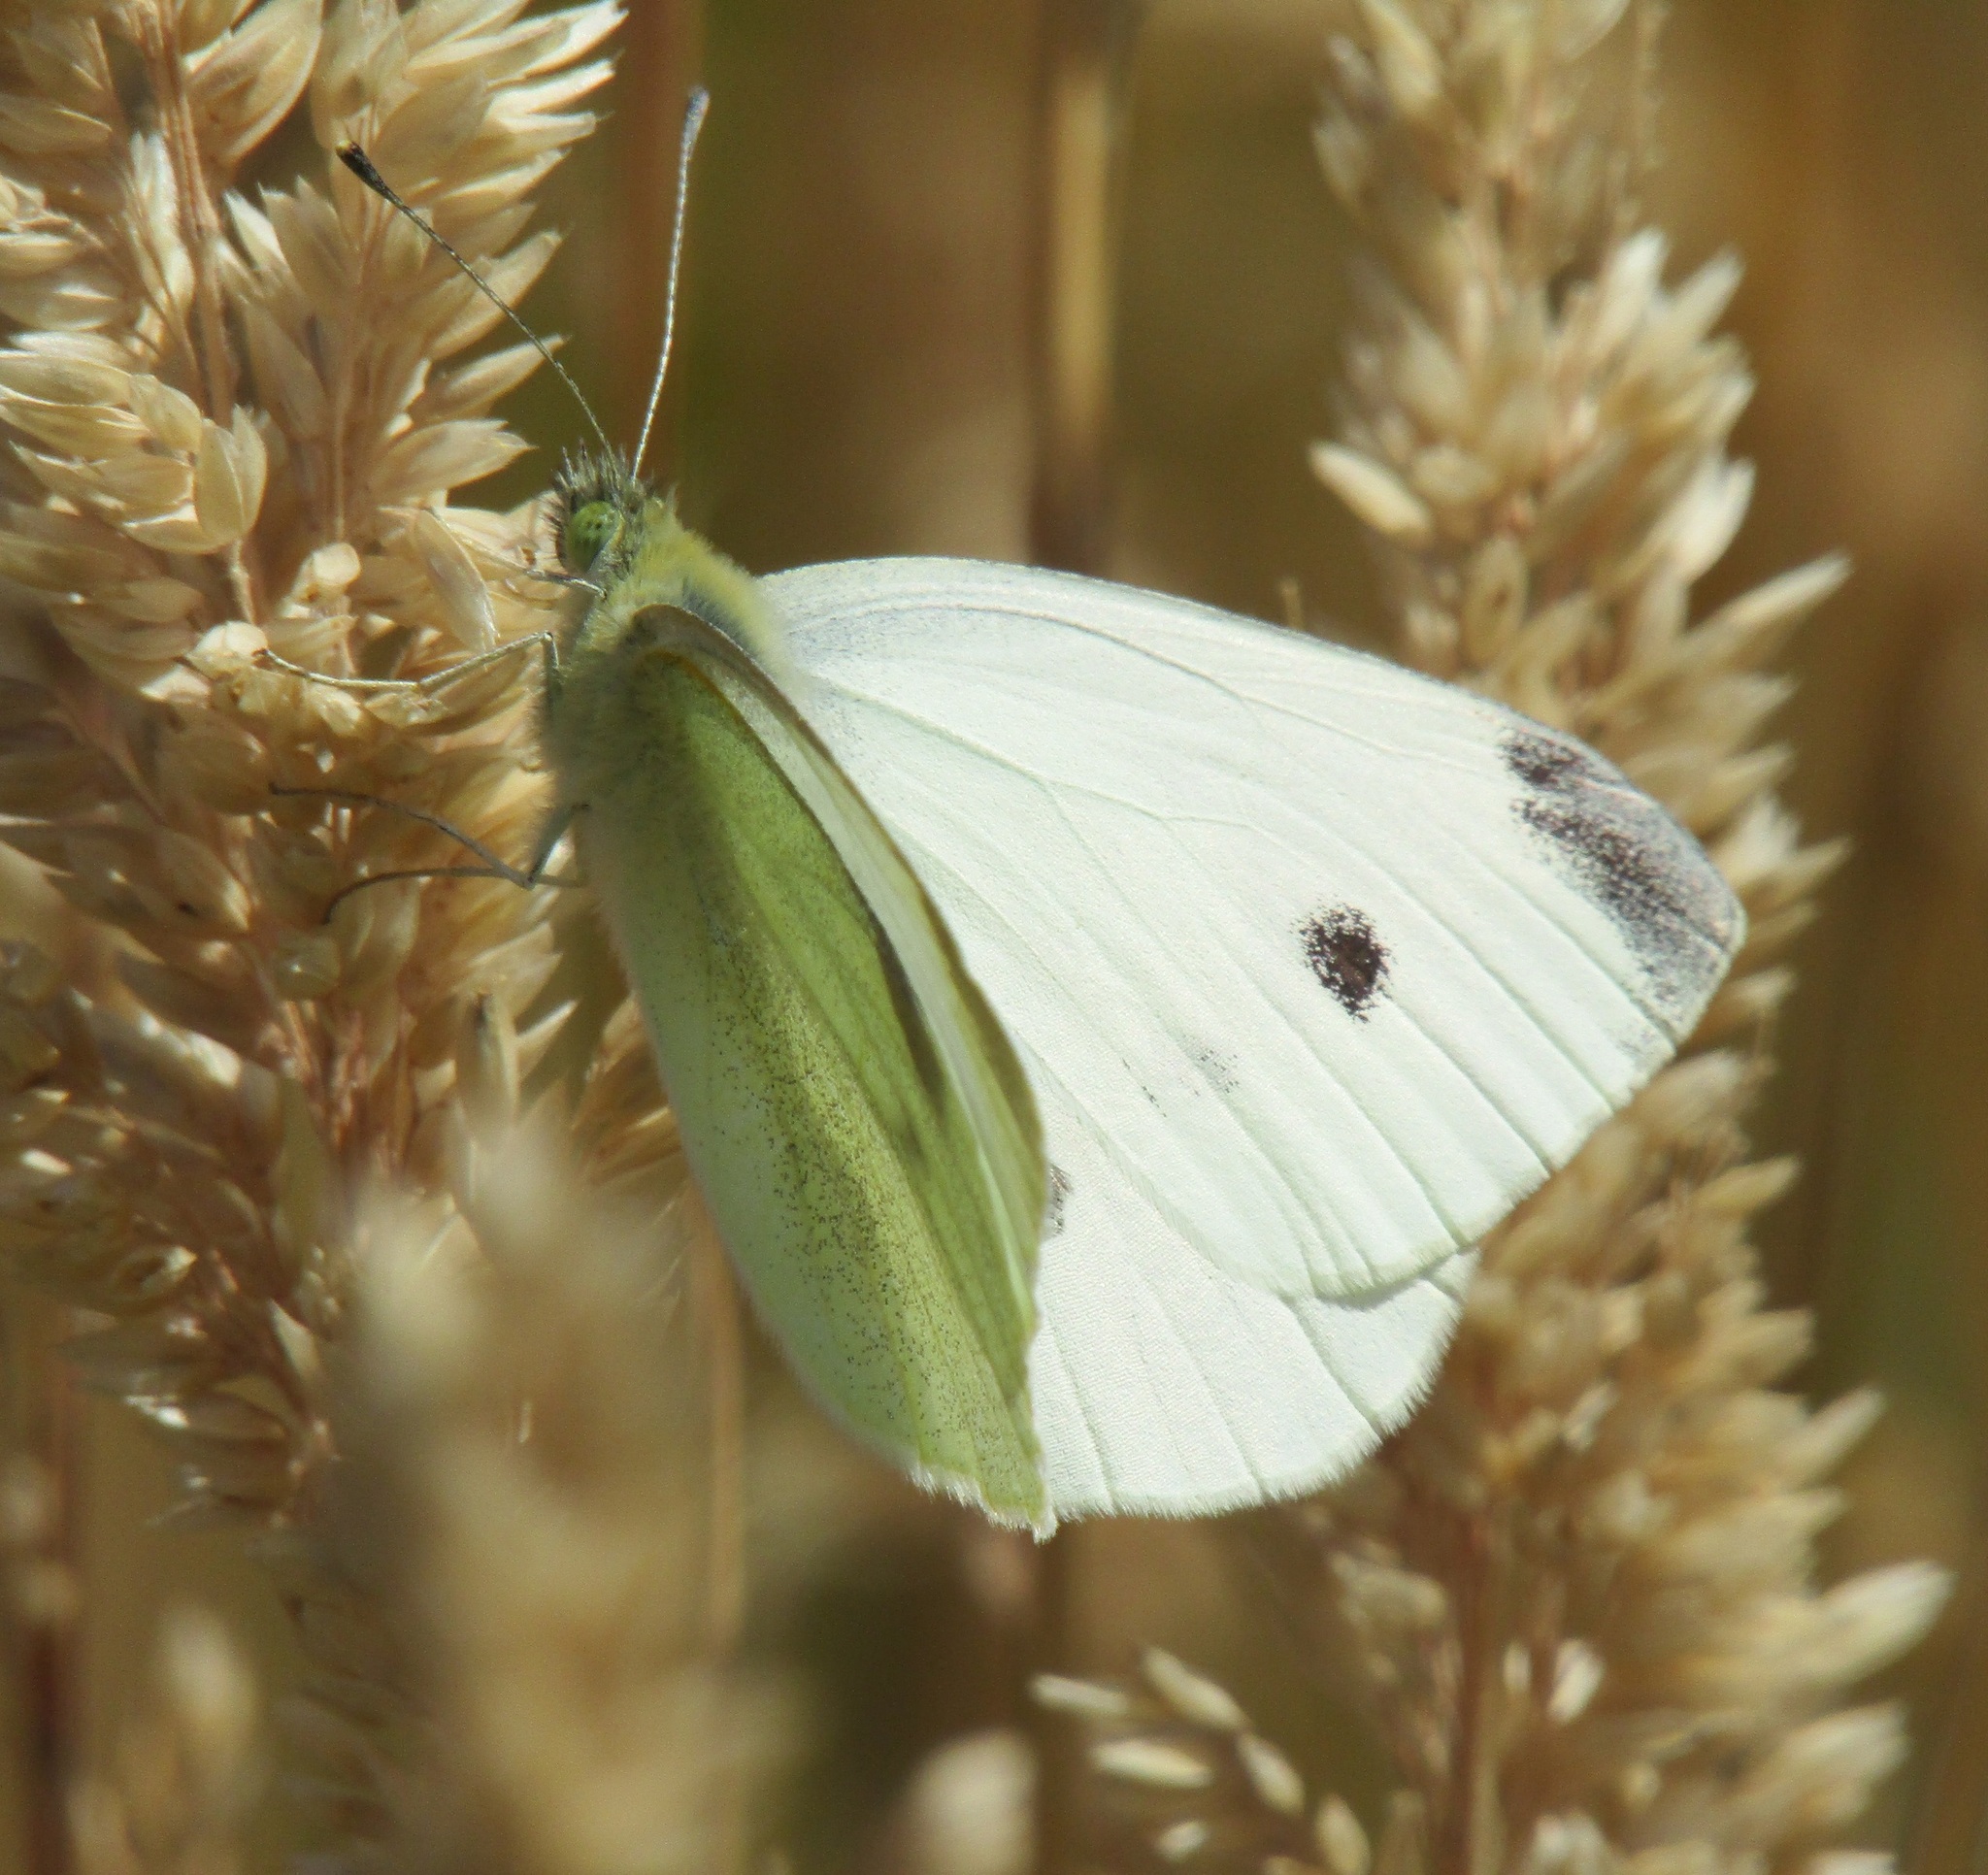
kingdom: Animalia
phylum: Arthropoda
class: Insecta
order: Lepidoptera
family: Pieridae
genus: Pieris
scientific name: Pieris rapae
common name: Small white
